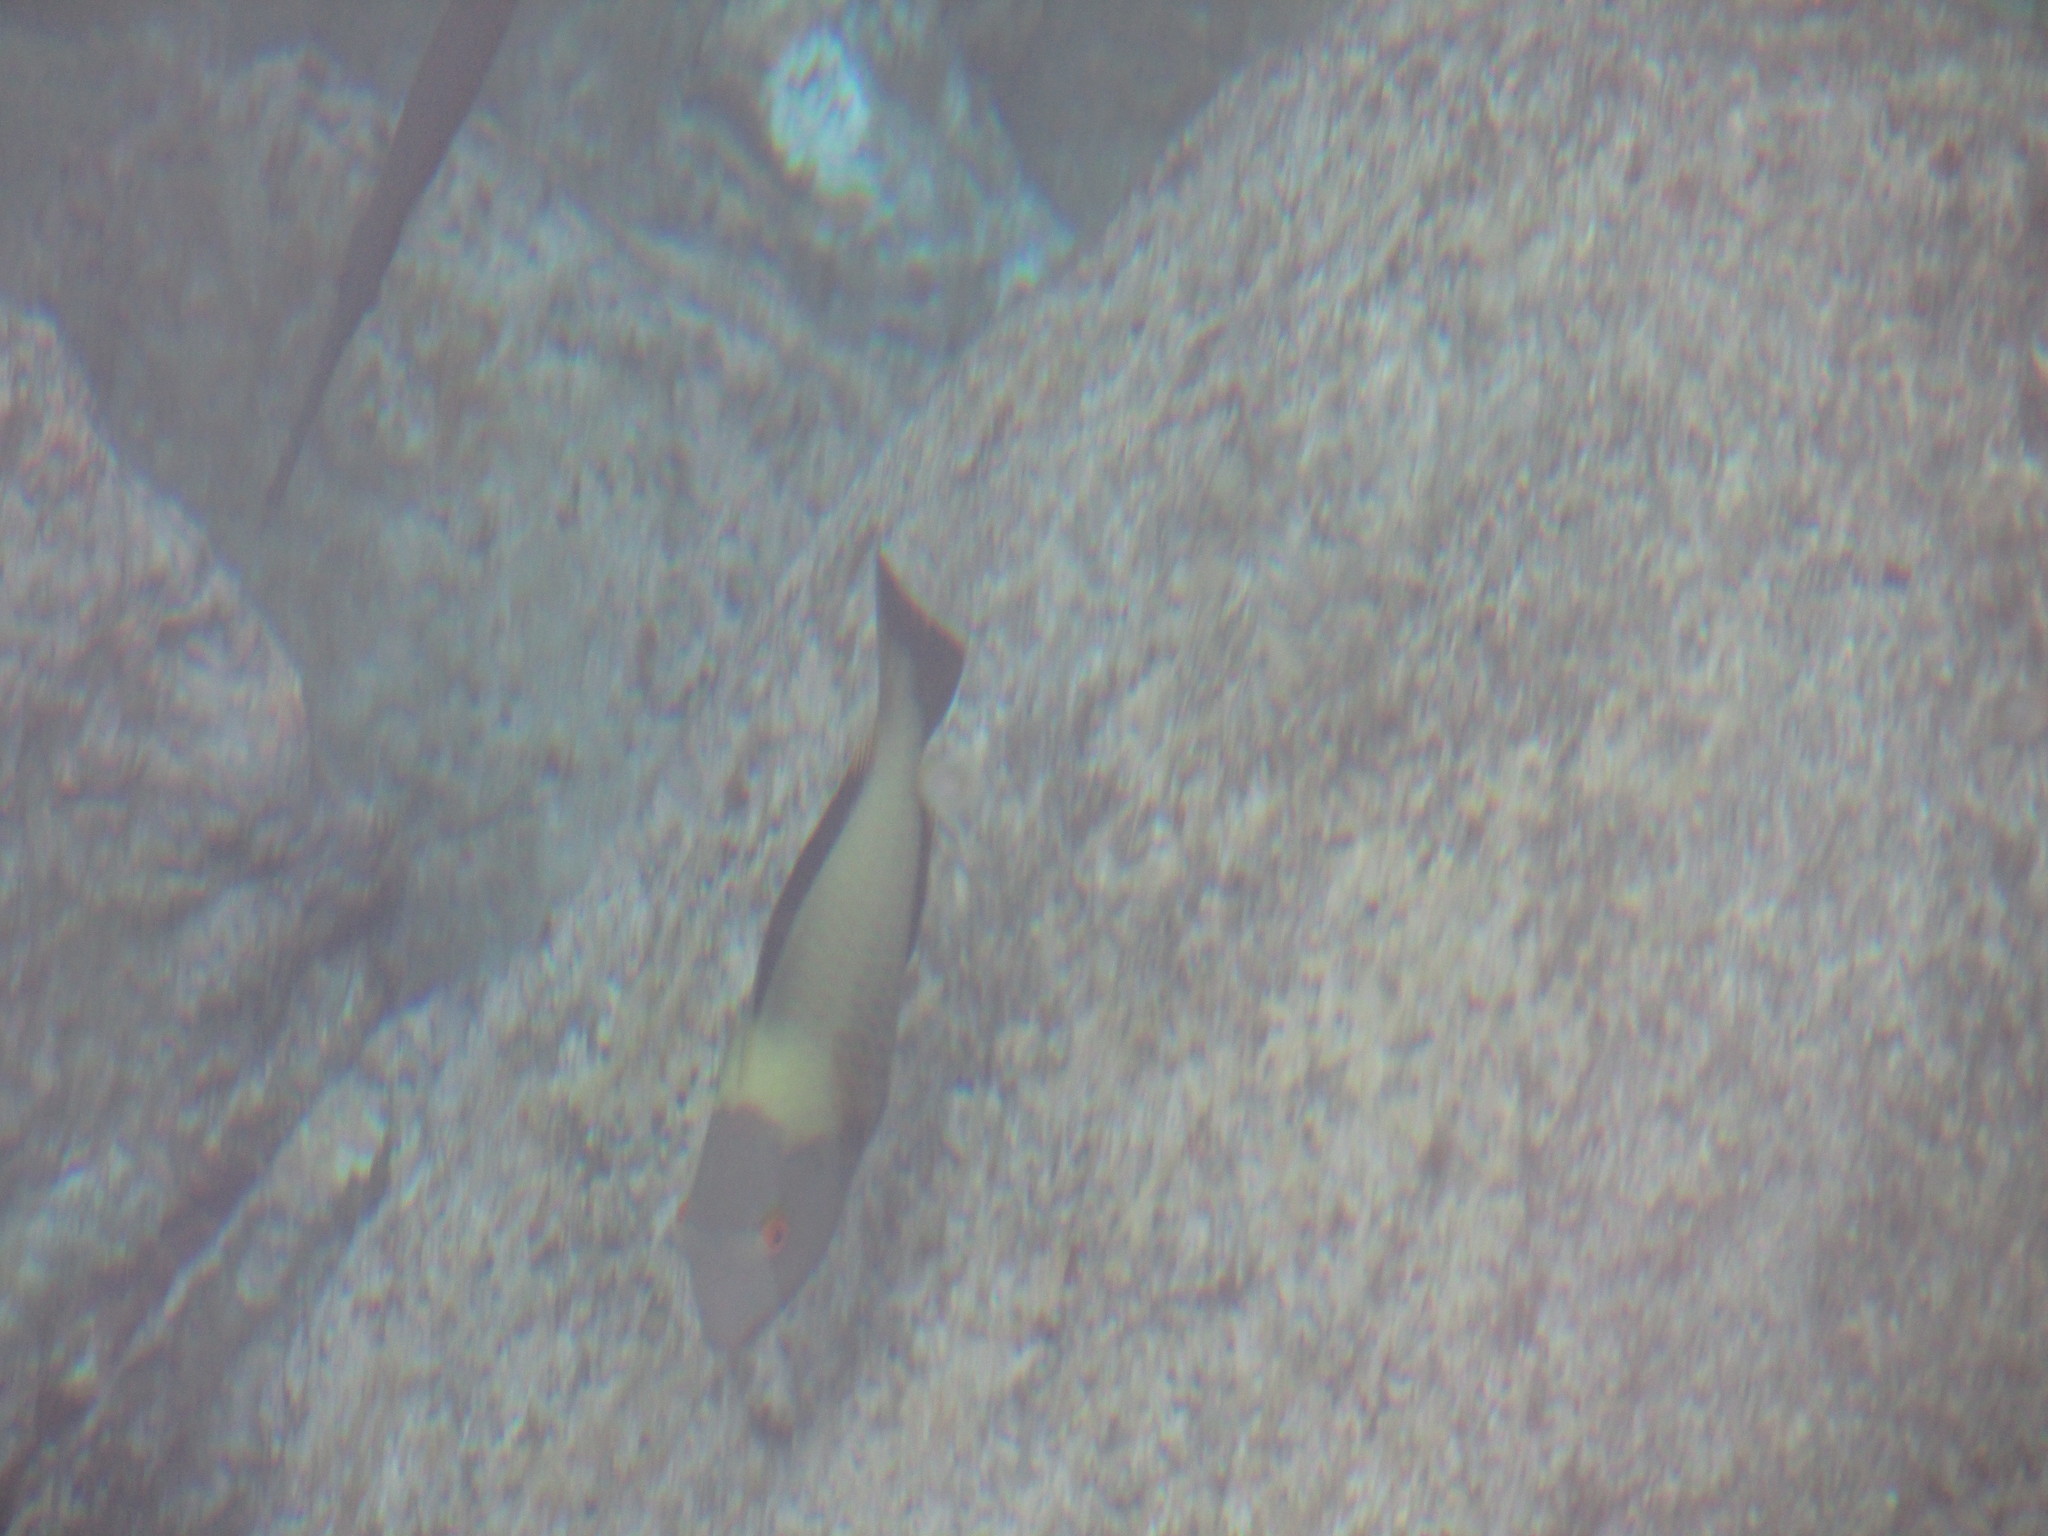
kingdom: Animalia
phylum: Chordata
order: Perciformes
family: Scaridae
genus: Cetoscarus
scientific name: Cetoscarus ocellatus
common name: Bicolor parrotfish
